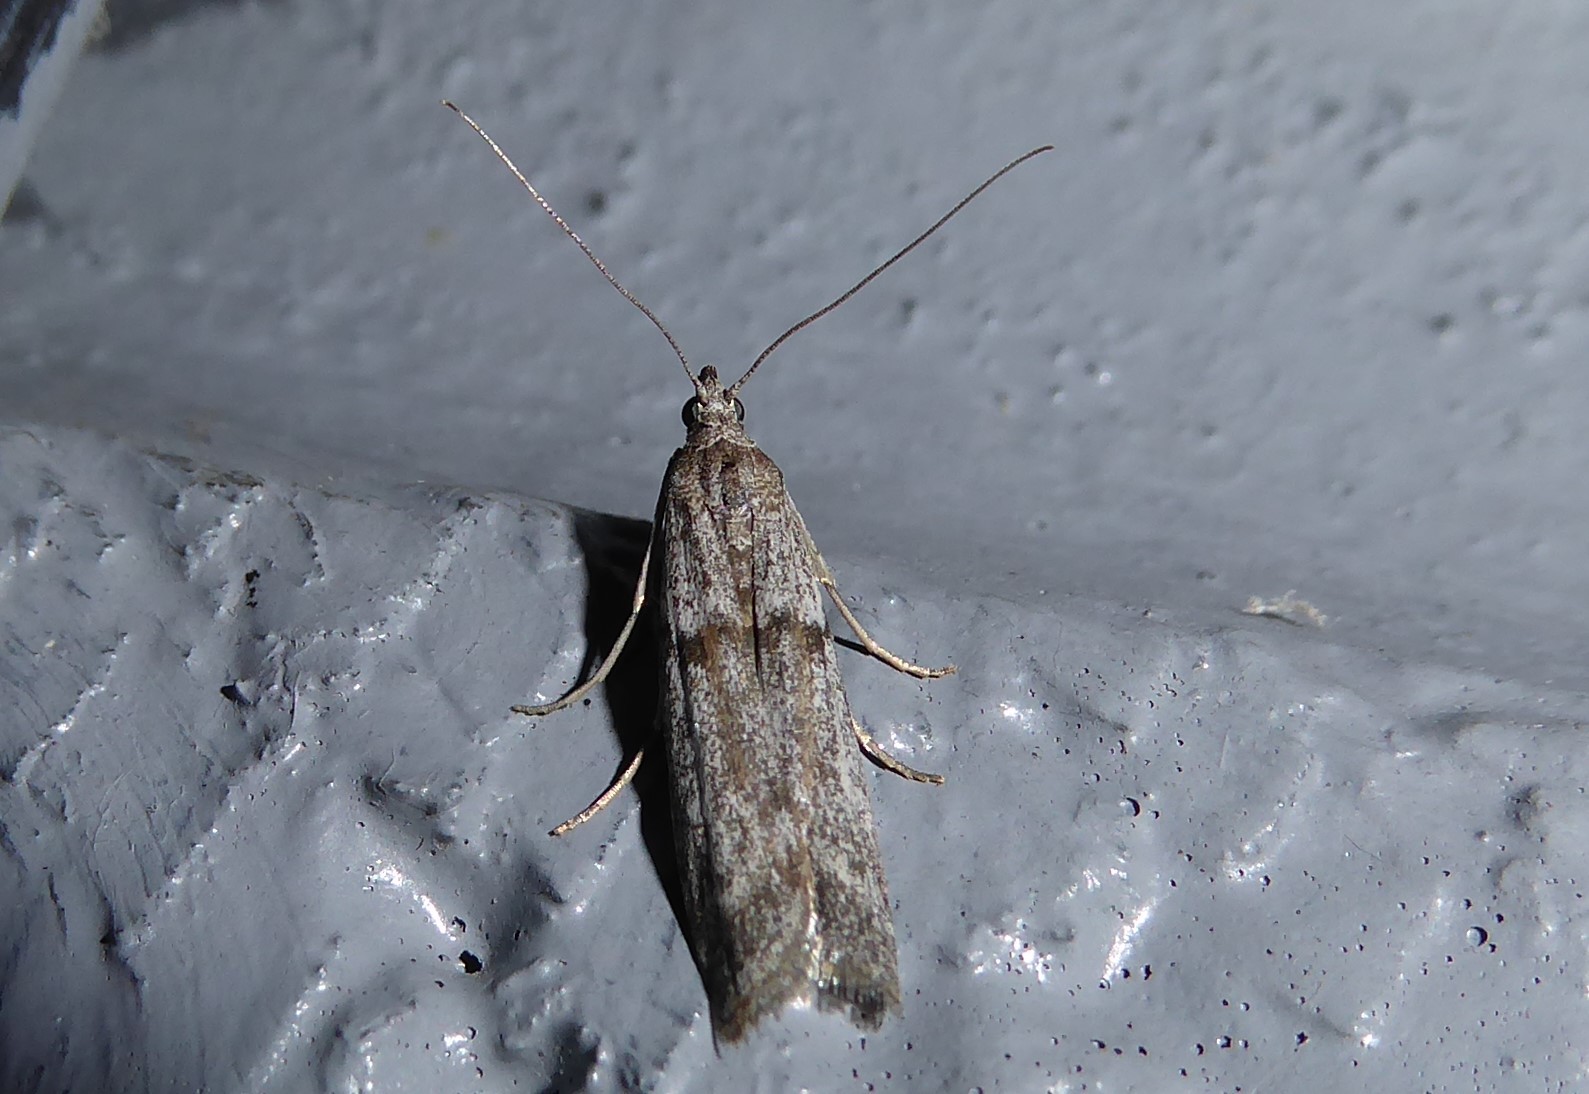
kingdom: Animalia
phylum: Arthropoda
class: Insecta
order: Lepidoptera
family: Pyralidae
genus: Patagoniodes
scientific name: Patagoniodes farinaria
